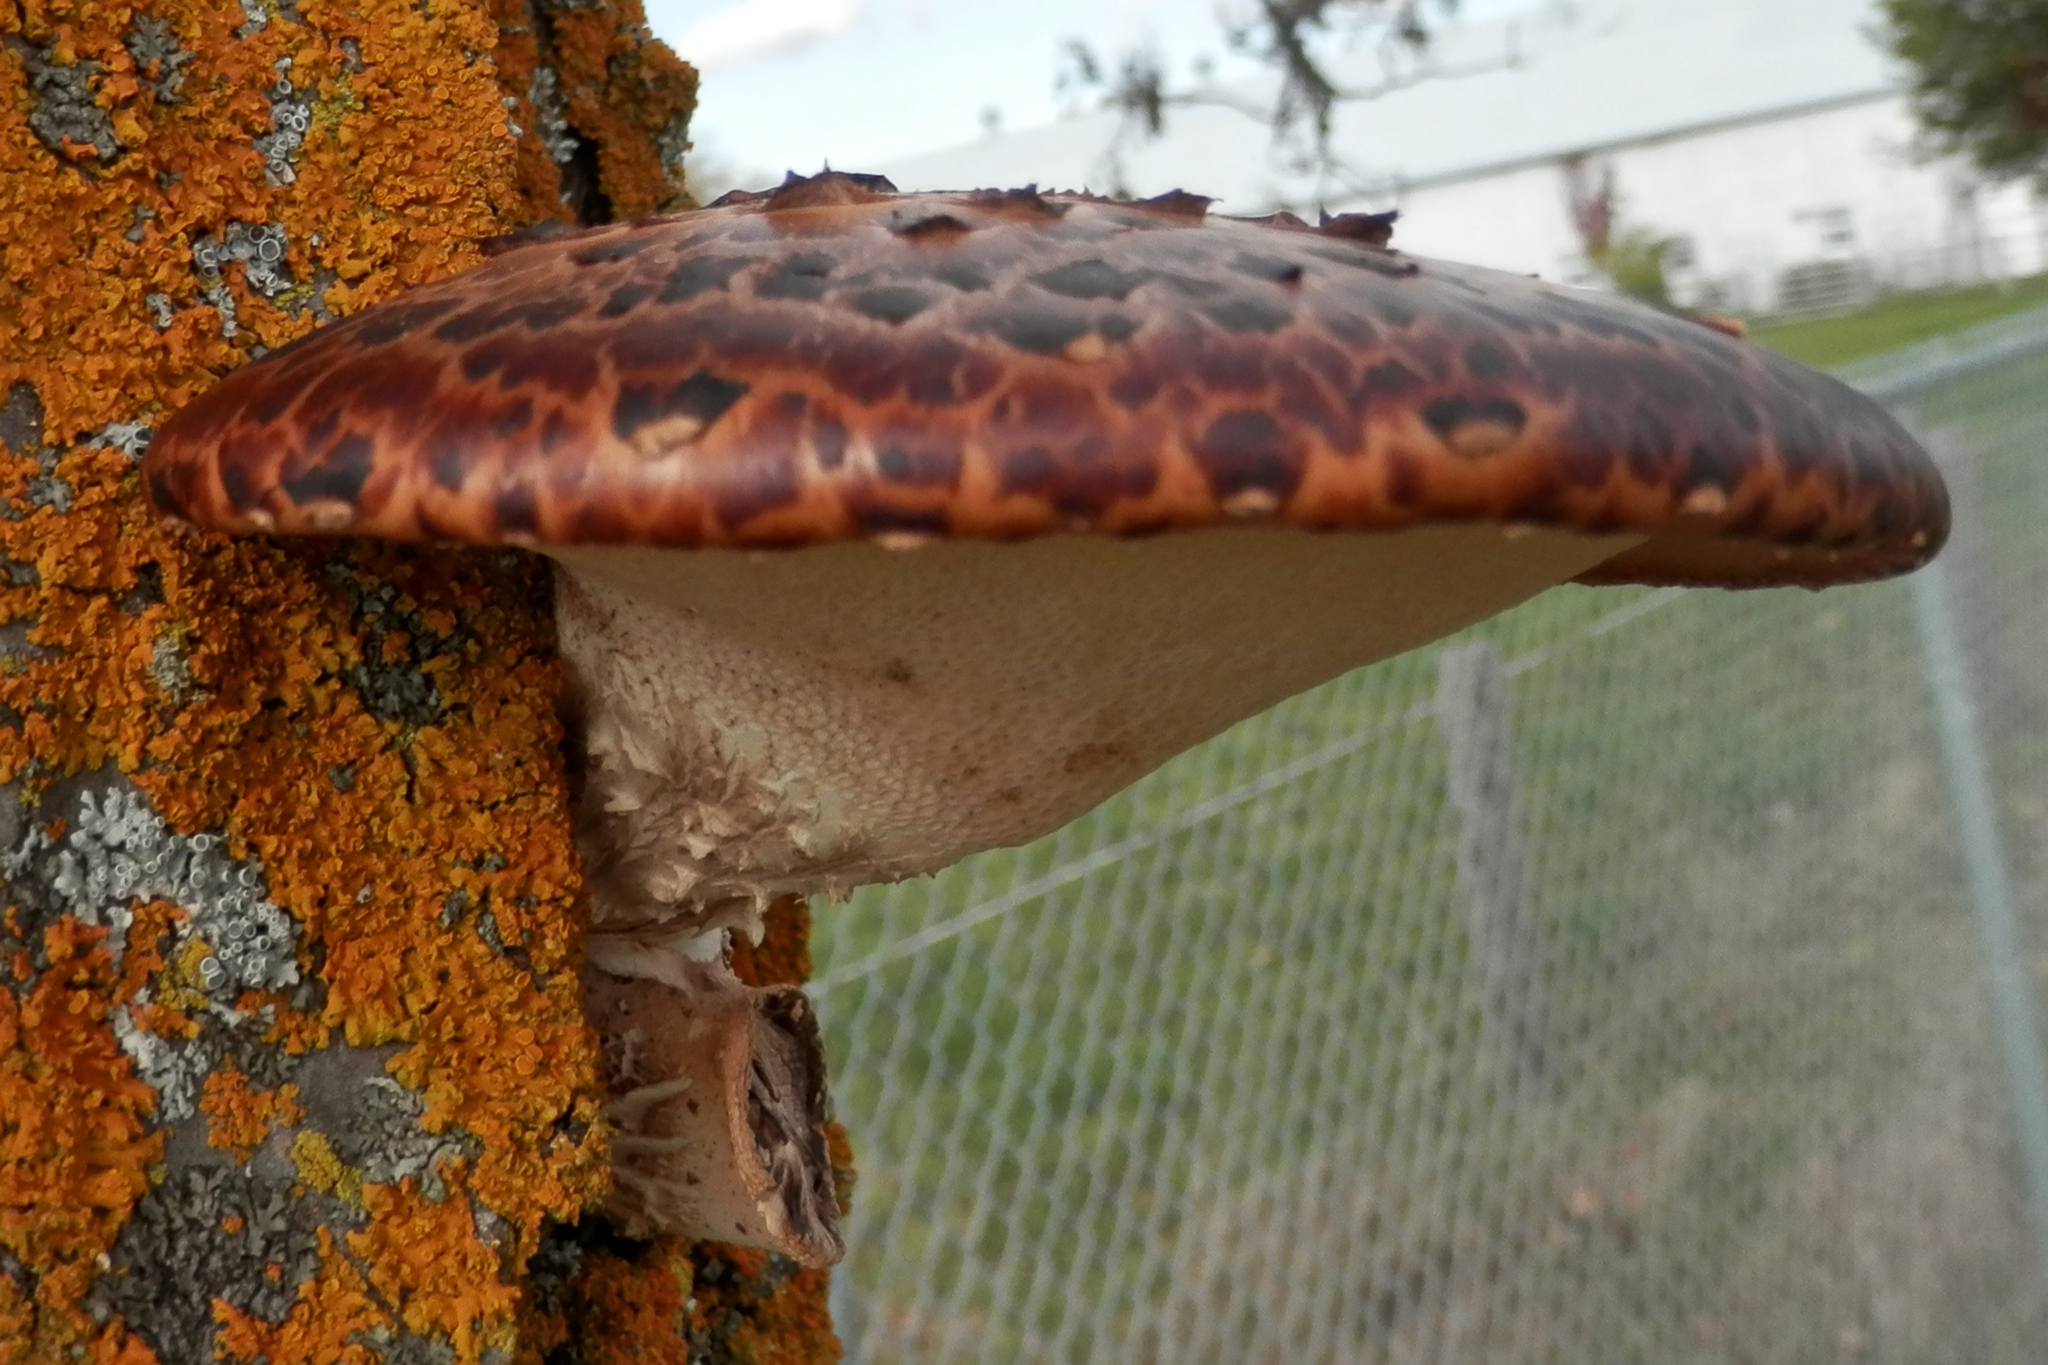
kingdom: Fungi
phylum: Basidiomycota
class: Agaricomycetes
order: Polyporales
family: Polyporaceae
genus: Cerioporus
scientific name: Cerioporus squamosus
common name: Dryad's saddle
